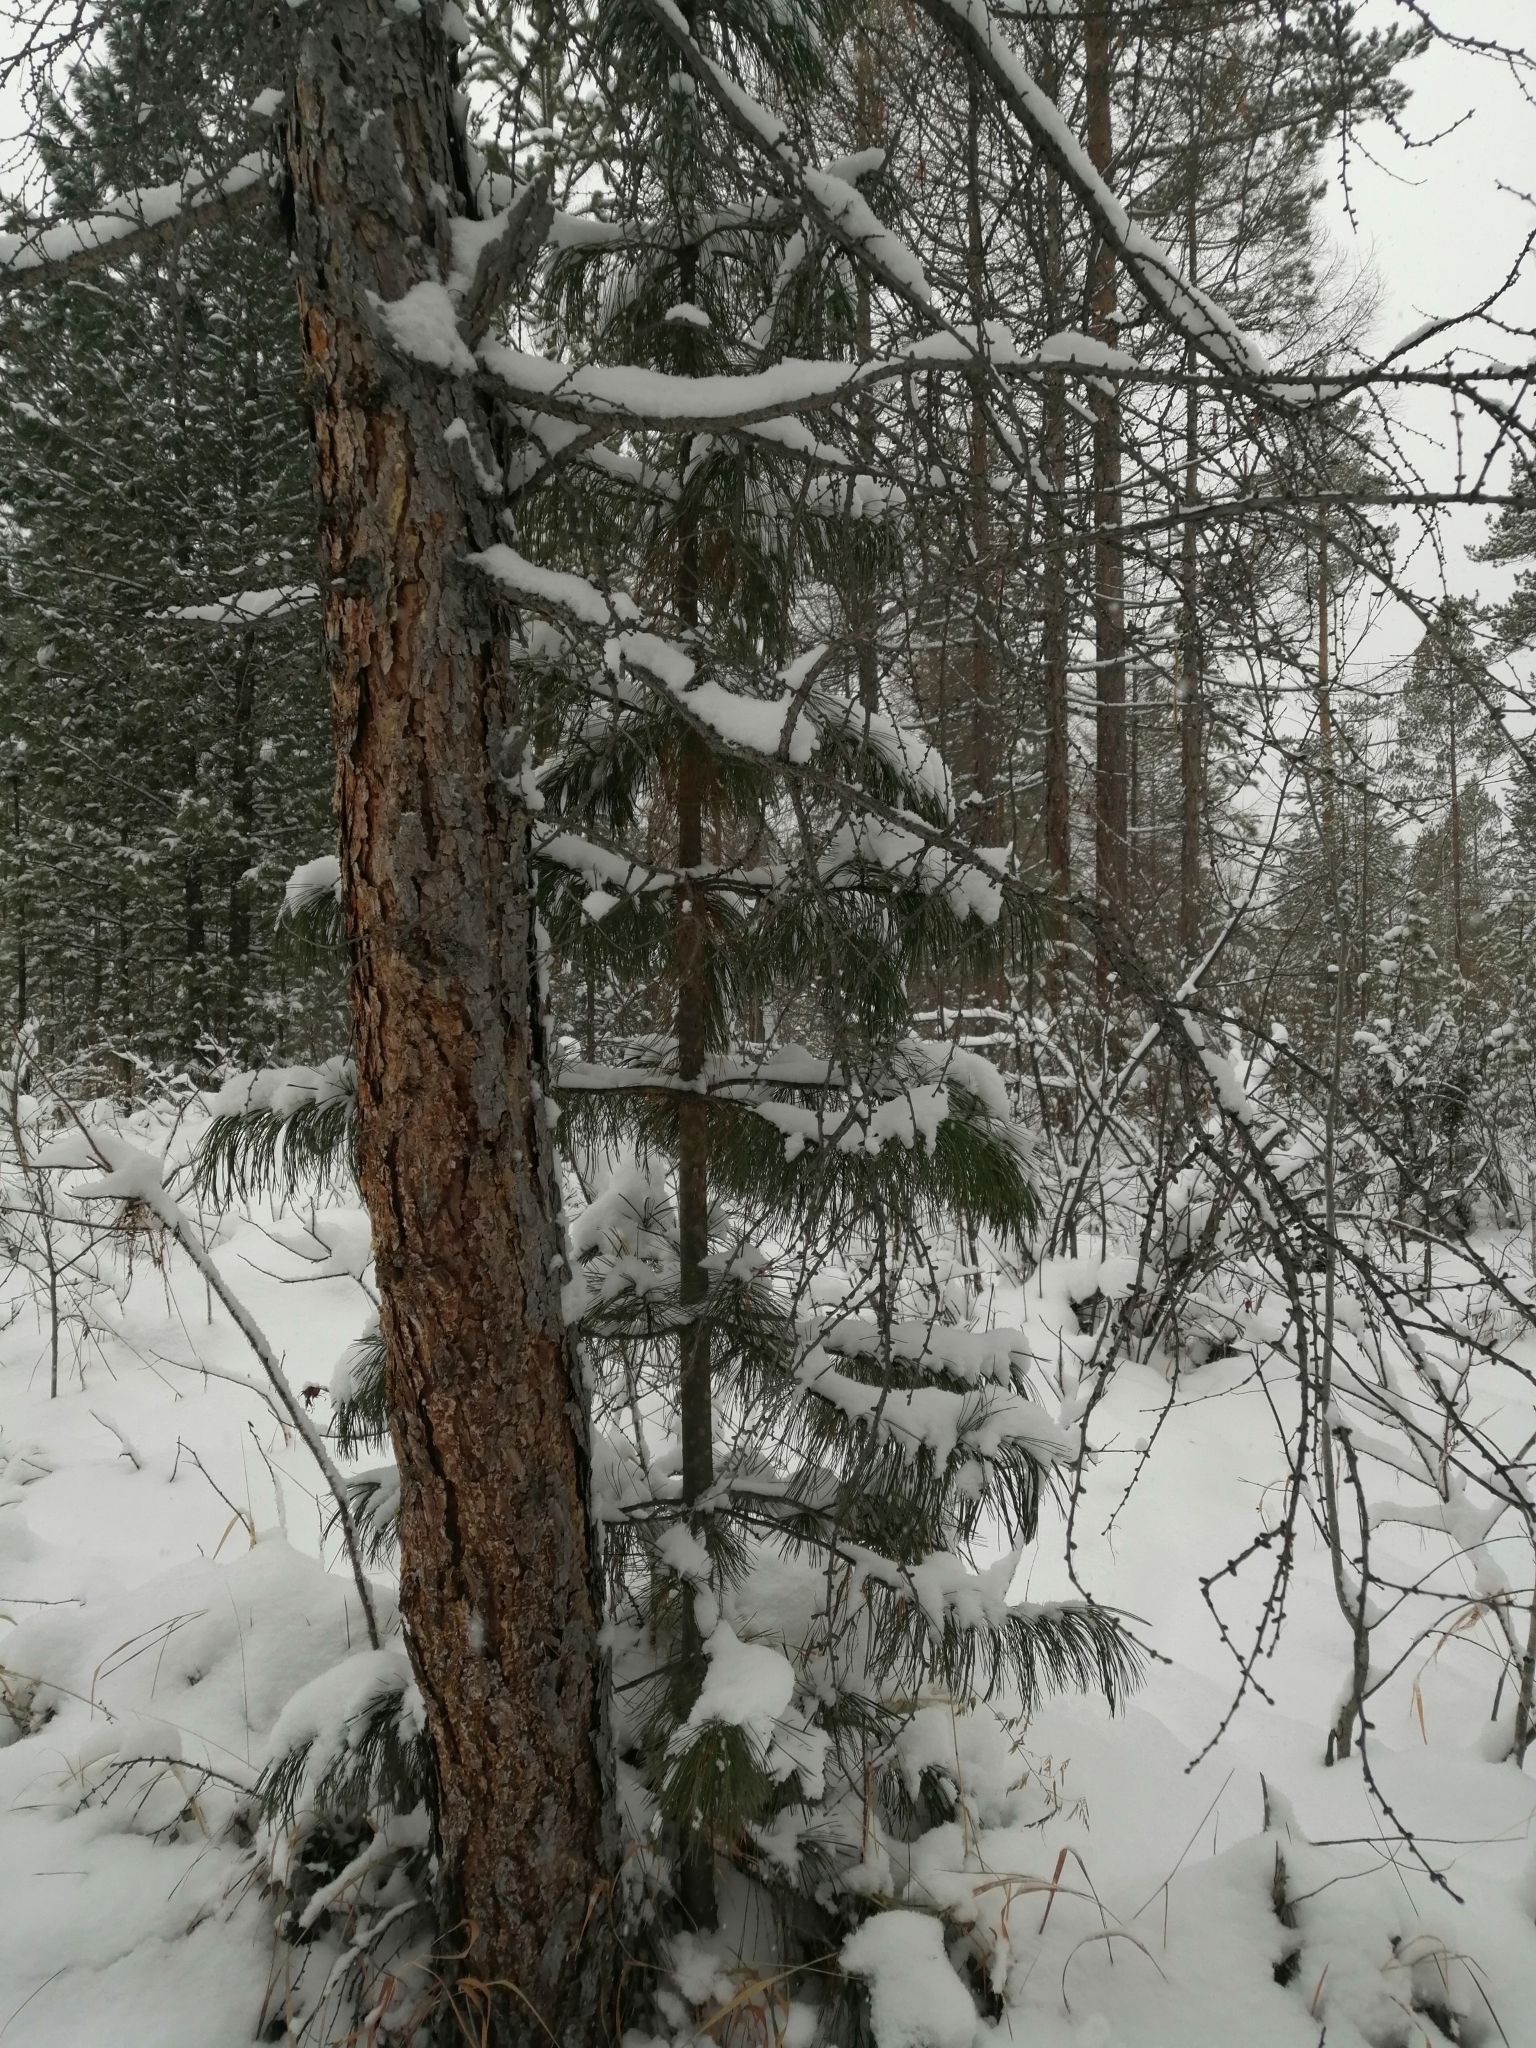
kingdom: Plantae
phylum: Tracheophyta
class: Pinopsida
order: Pinales
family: Pinaceae
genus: Pinus
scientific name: Pinus sibirica
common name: Siberian pine
